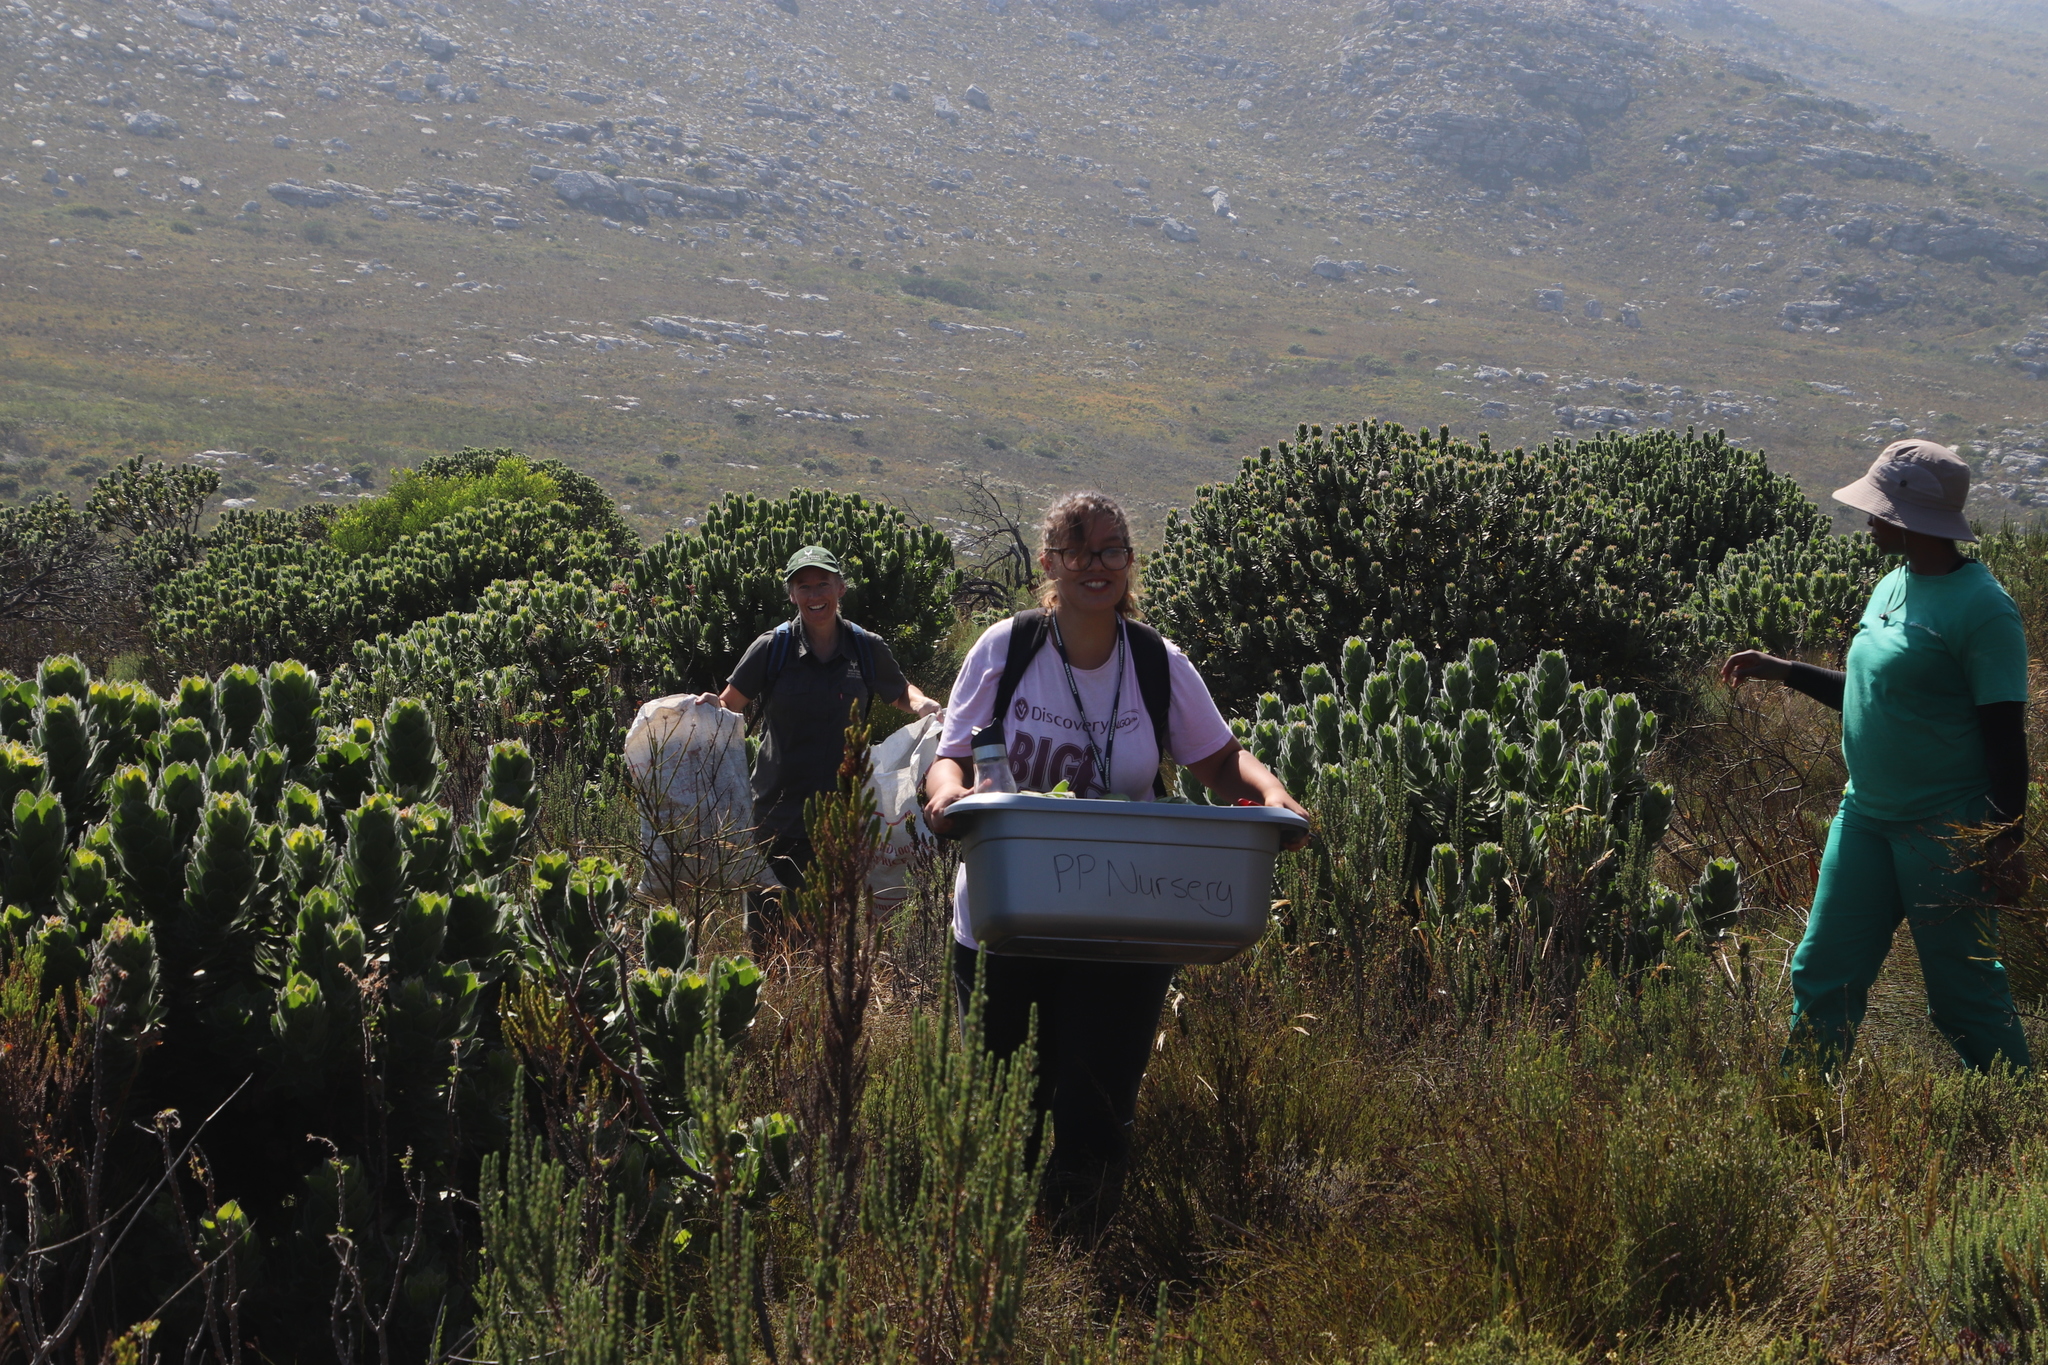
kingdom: Plantae
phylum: Tracheophyta
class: Magnoliopsida
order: Proteales
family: Proteaceae
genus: Leucospermum
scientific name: Leucospermum conocarpodendron
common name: Tree pincushion
